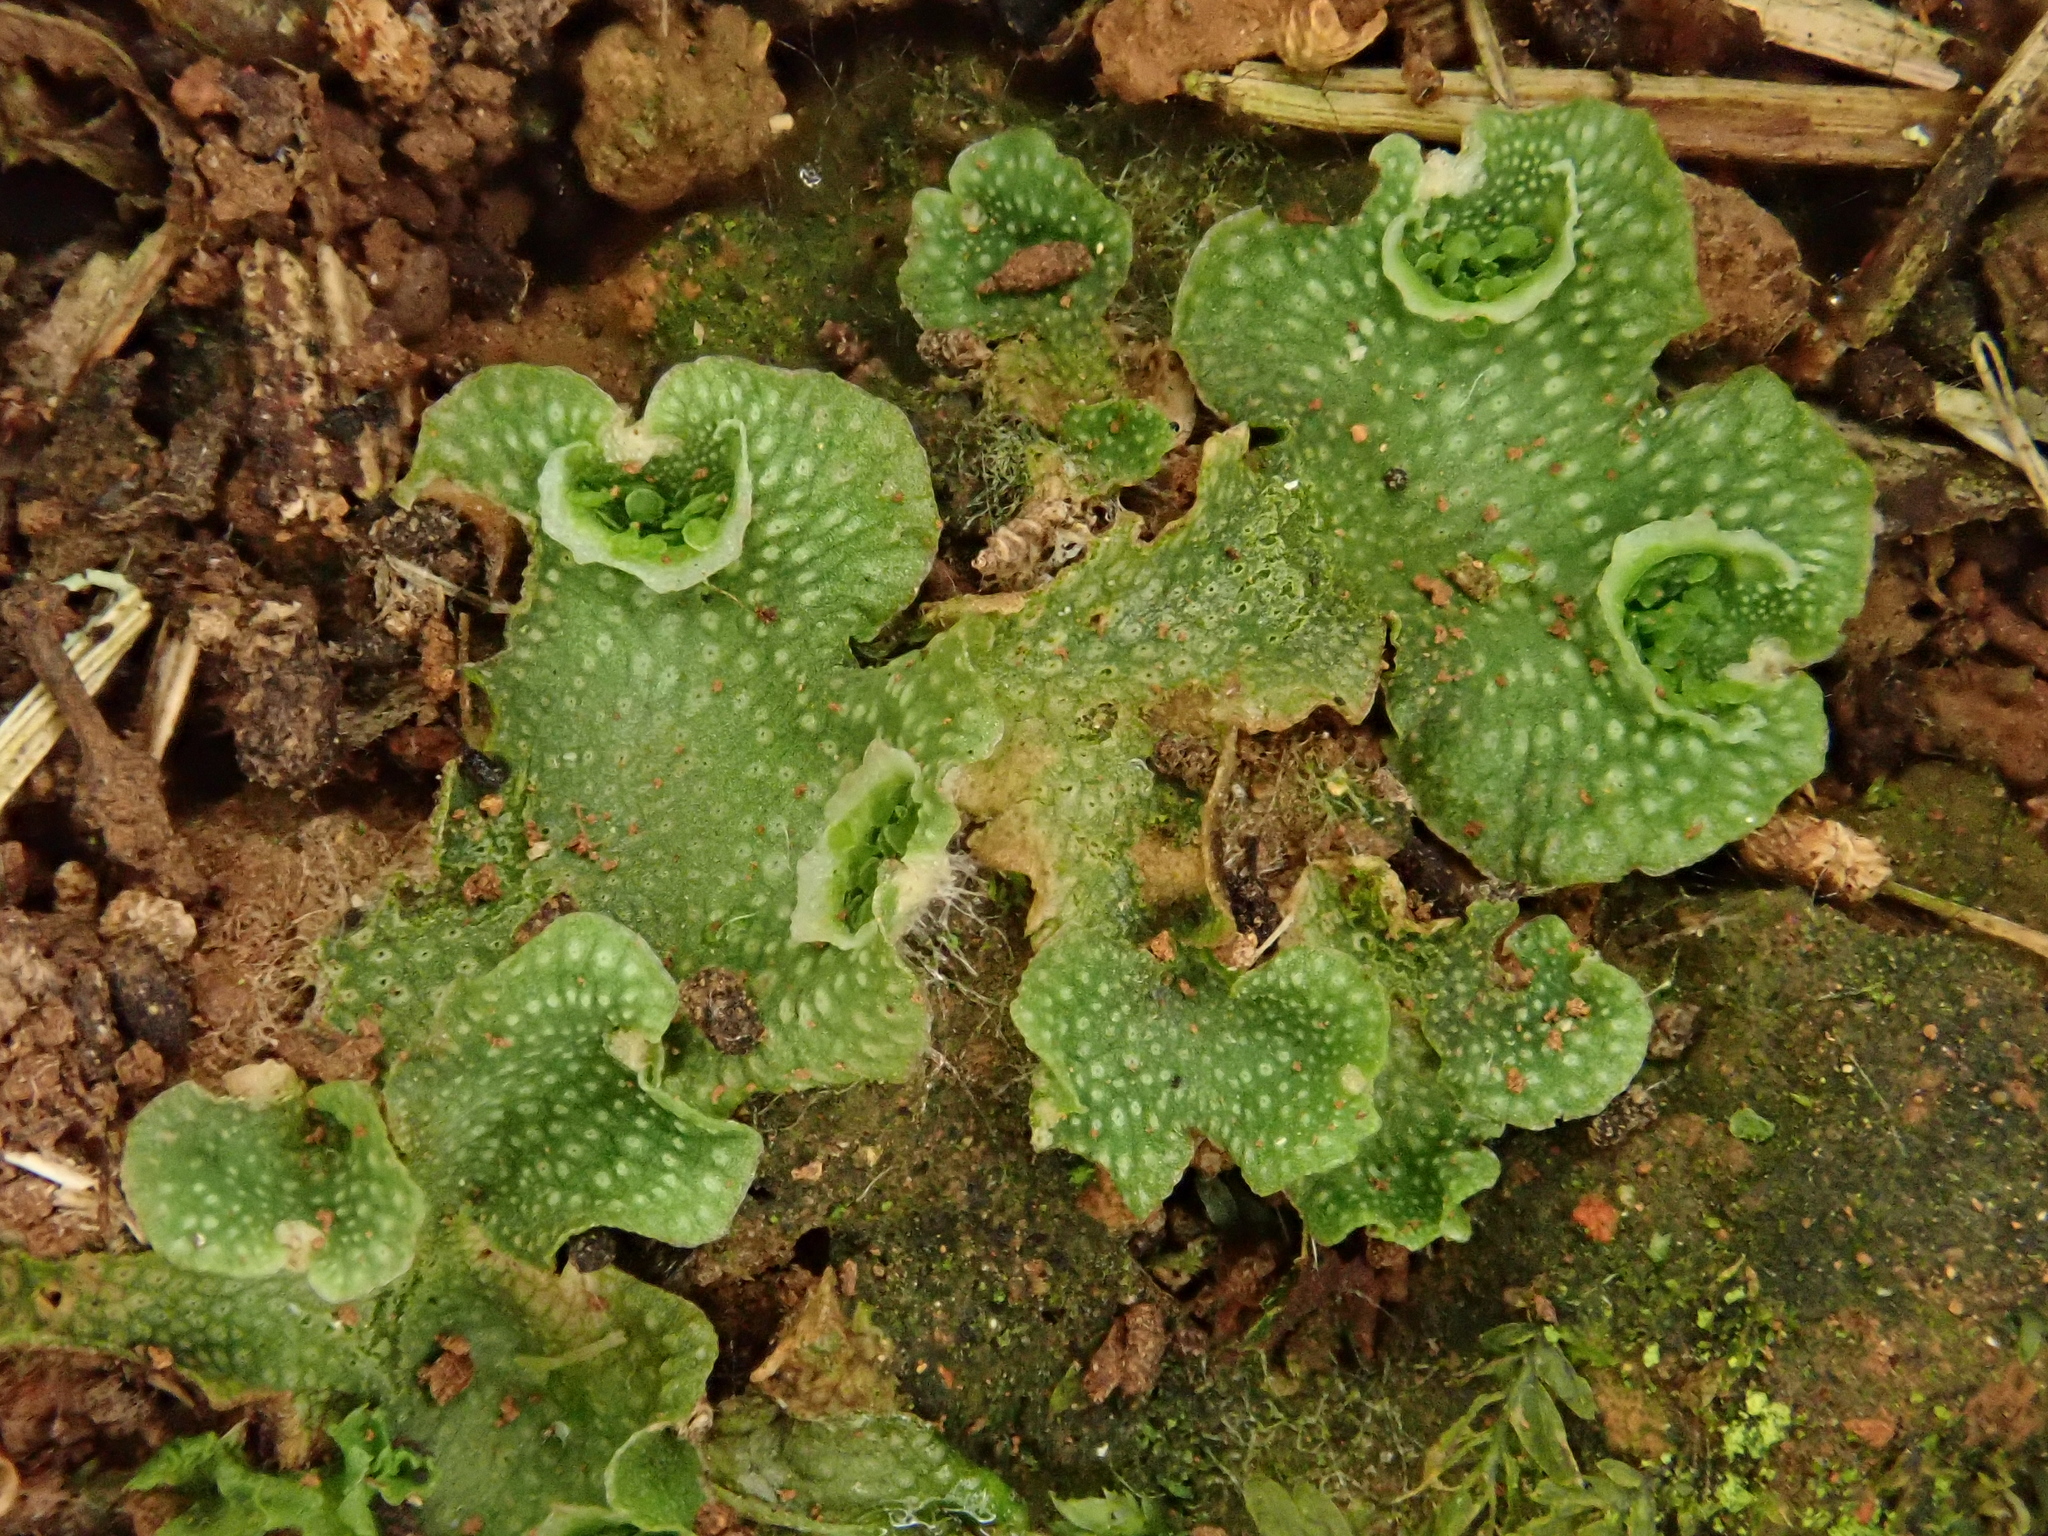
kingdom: Plantae
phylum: Marchantiophyta
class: Marchantiopsida
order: Lunulariales
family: Lunulariaceae
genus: Lunularia
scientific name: Lunularia cruciata
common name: Crescent-cup liverwort
